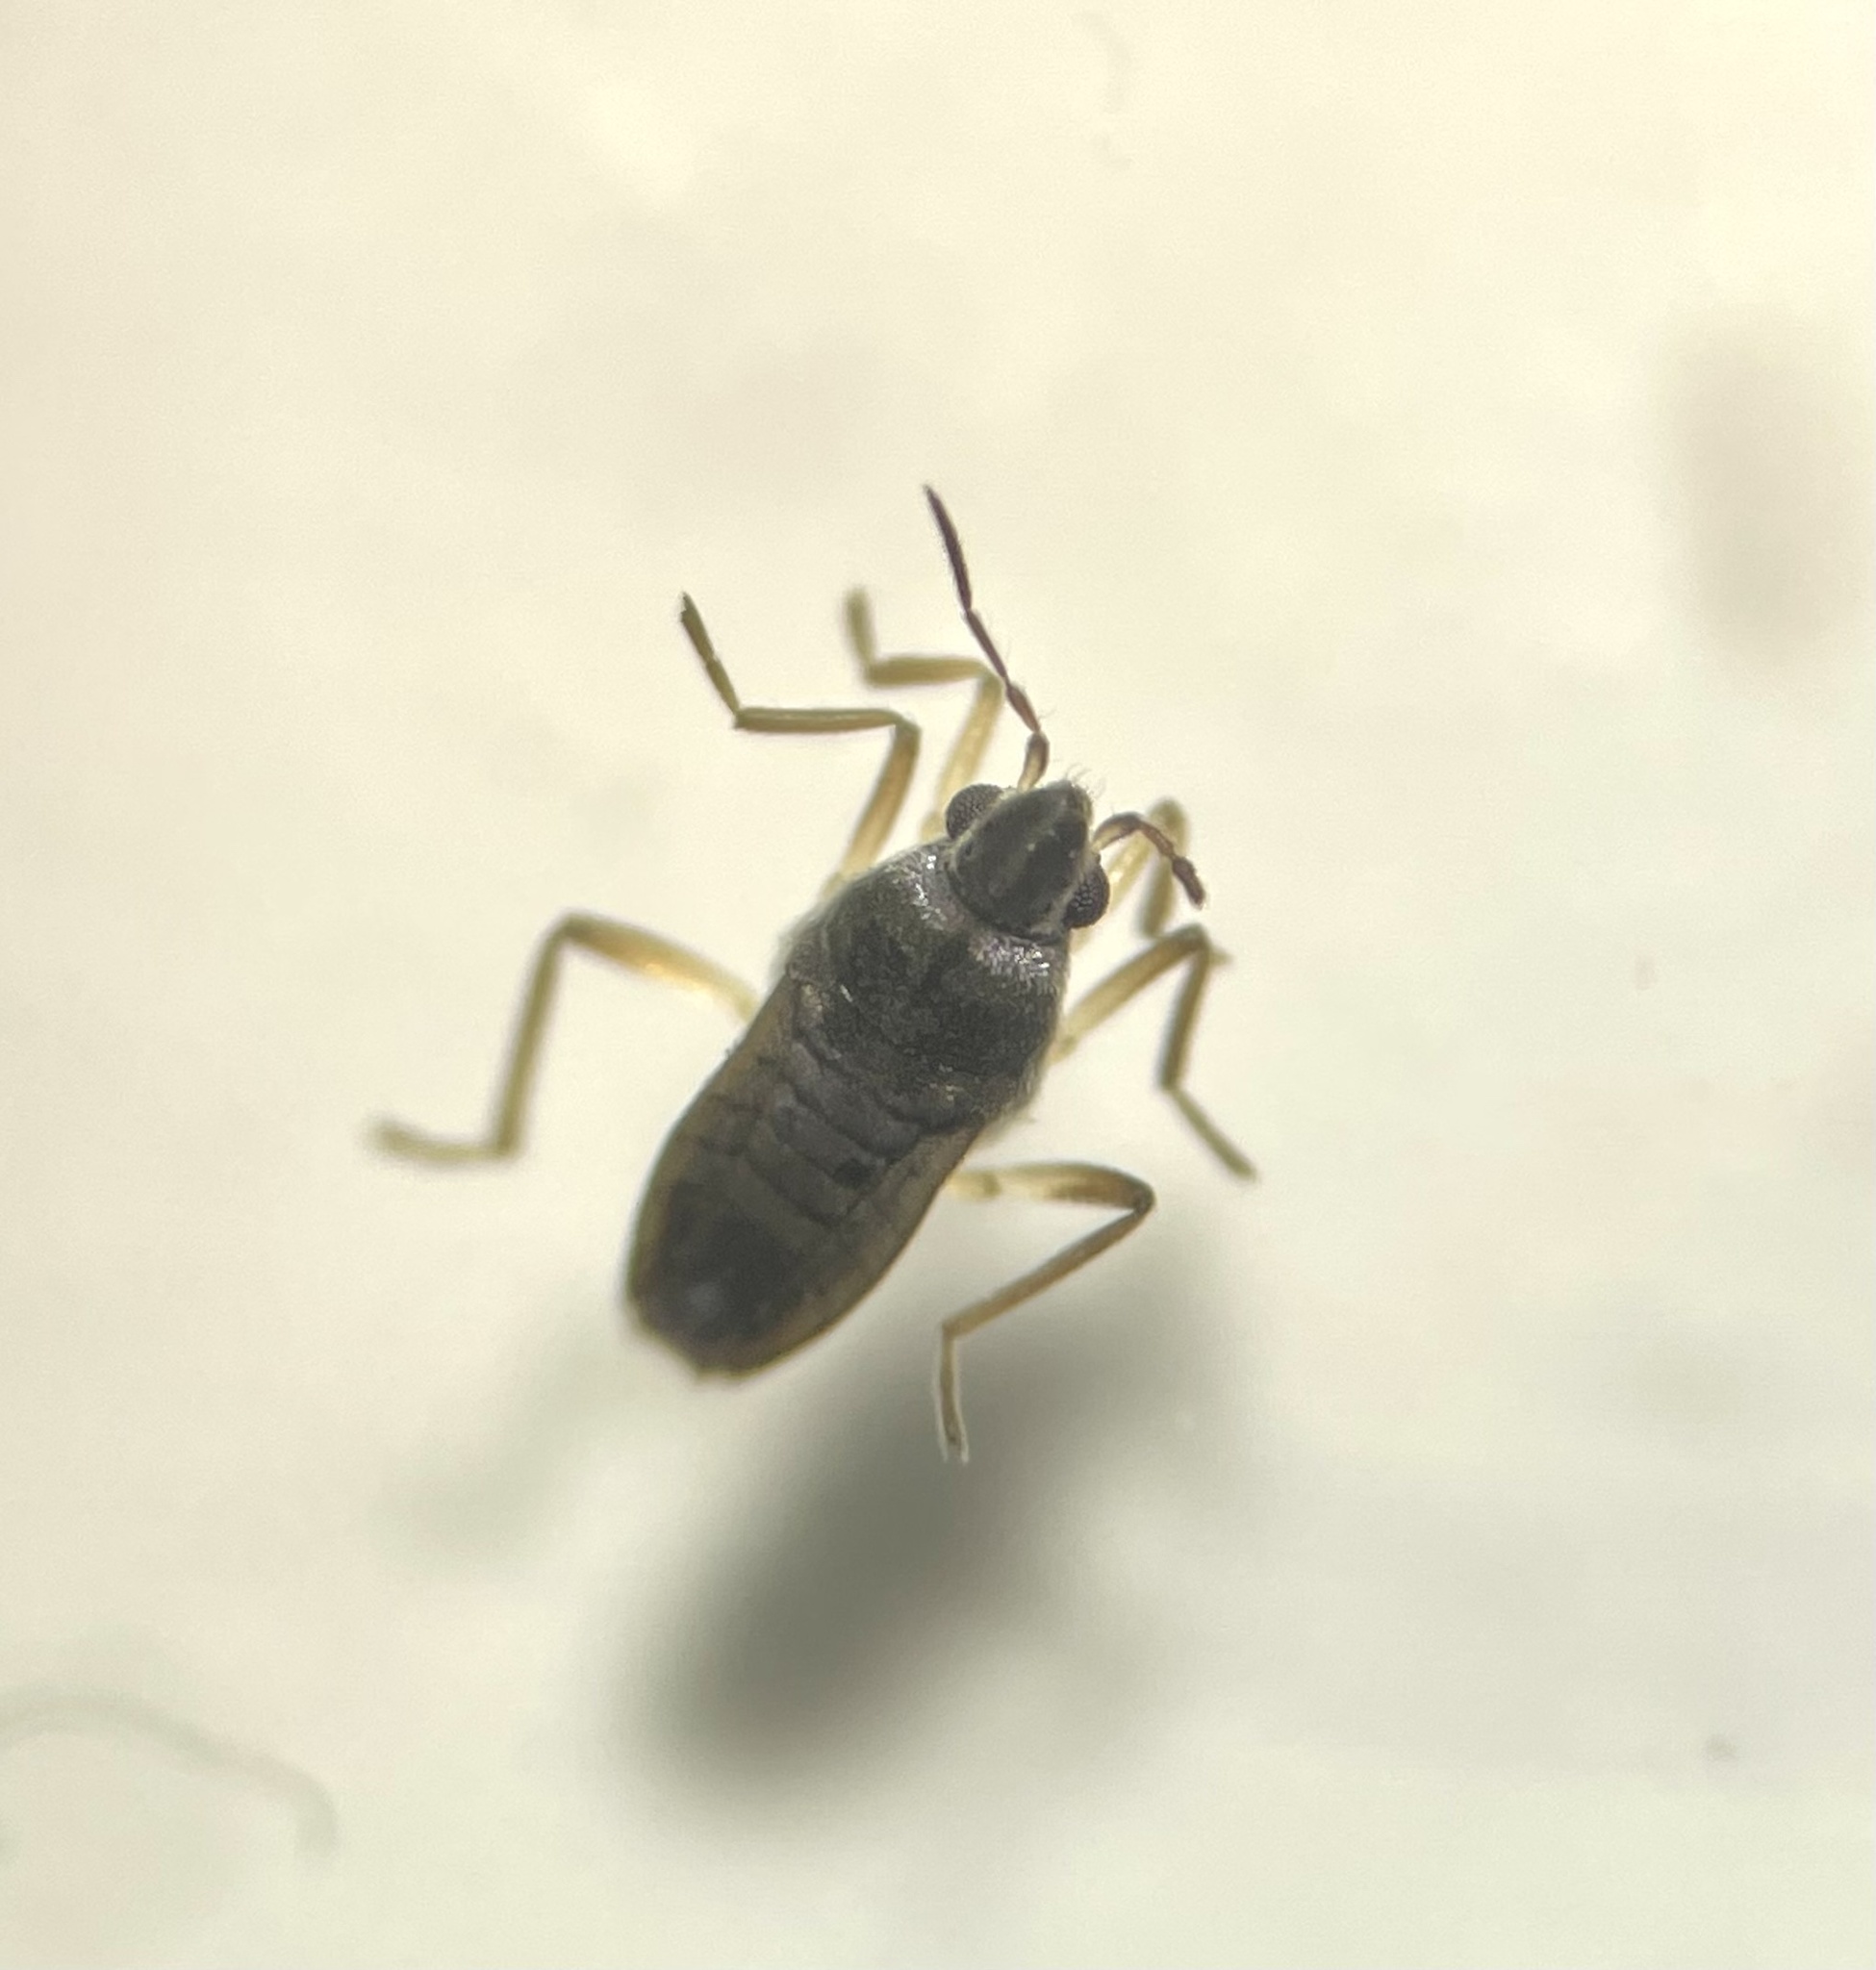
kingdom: Animalia
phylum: Arthropoda
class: Insecta
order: Hemiptera
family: Veliidae
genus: Microvelia
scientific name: Microvelia douglasi
